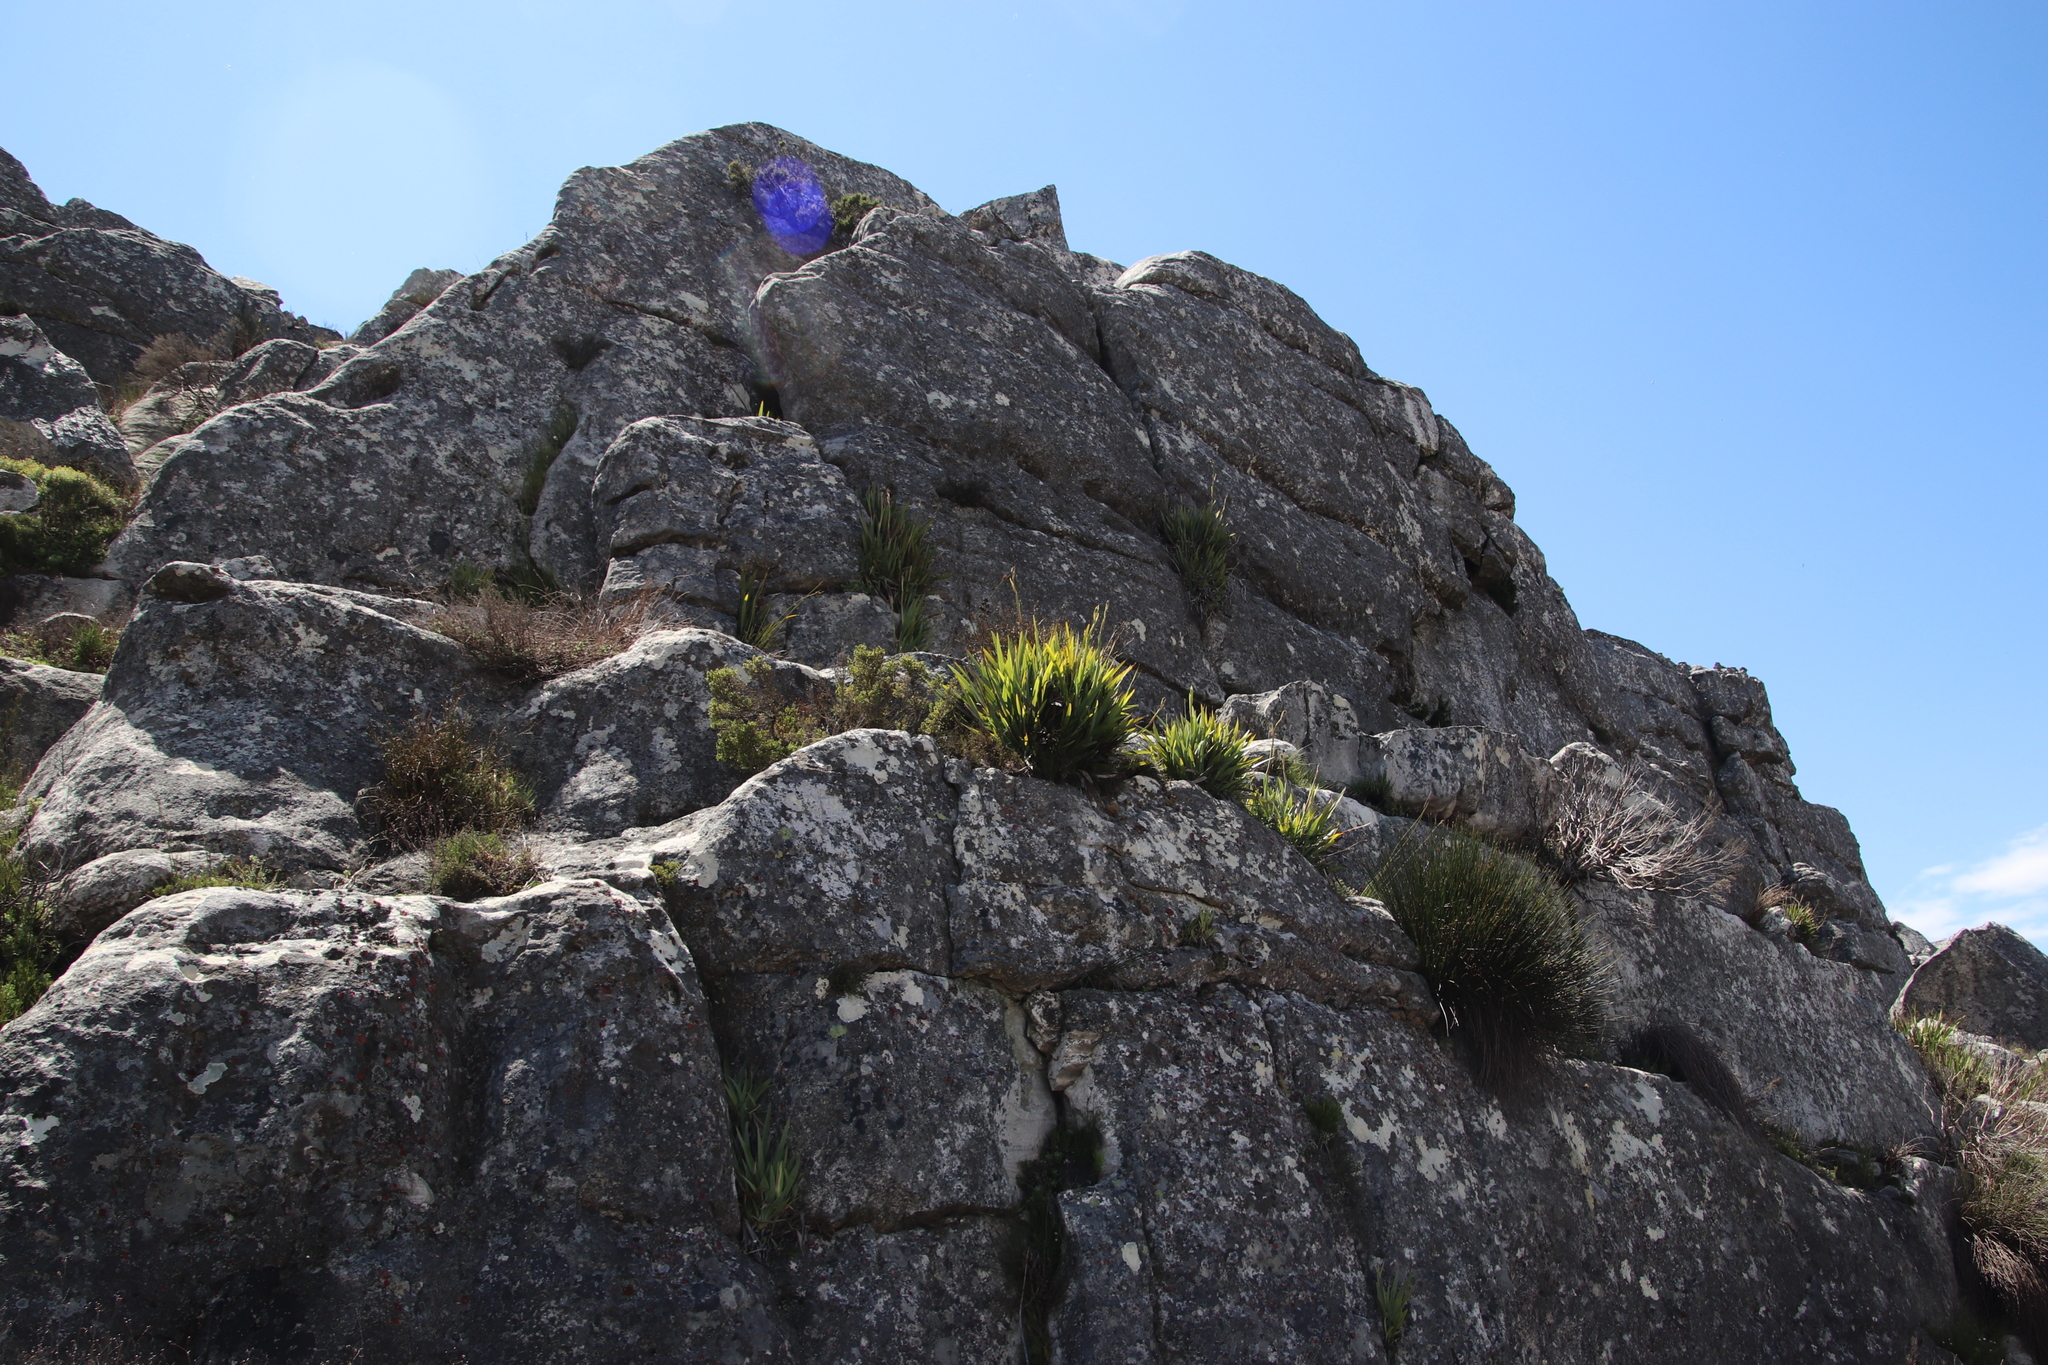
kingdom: Plantae
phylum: Tracheophyta
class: Liliopsida
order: Asparagales
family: Iridaceae
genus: Aristea
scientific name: Aristea latifolia
